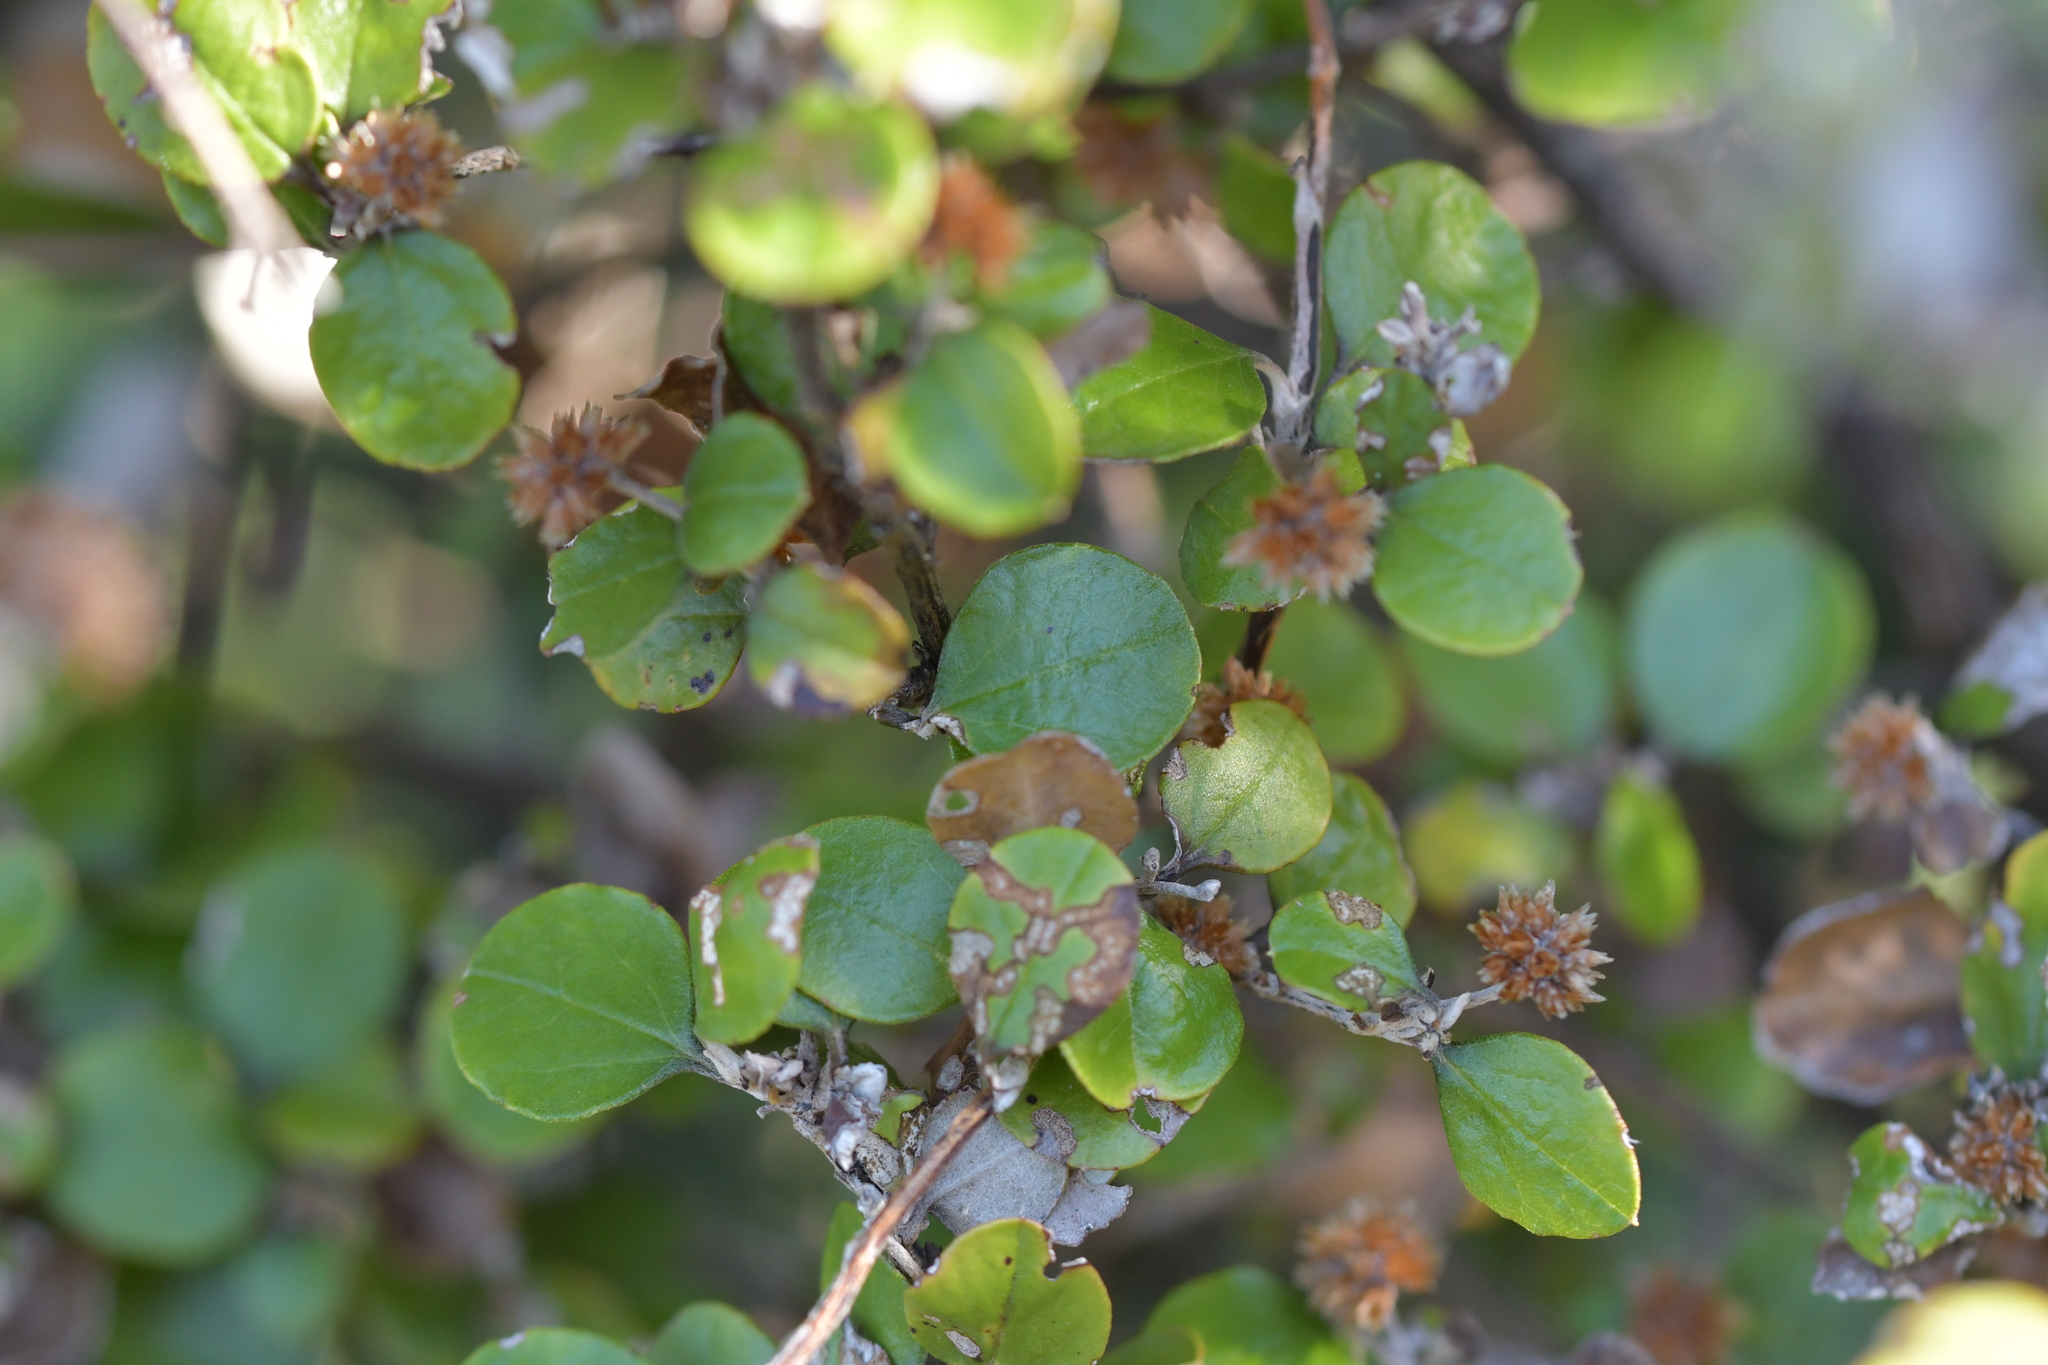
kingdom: Plantae
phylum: Tracheophyta
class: Magnoliopsida
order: Asterales
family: Asteraceae
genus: Ozothamnus
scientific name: Ozothamnus glomeratus
